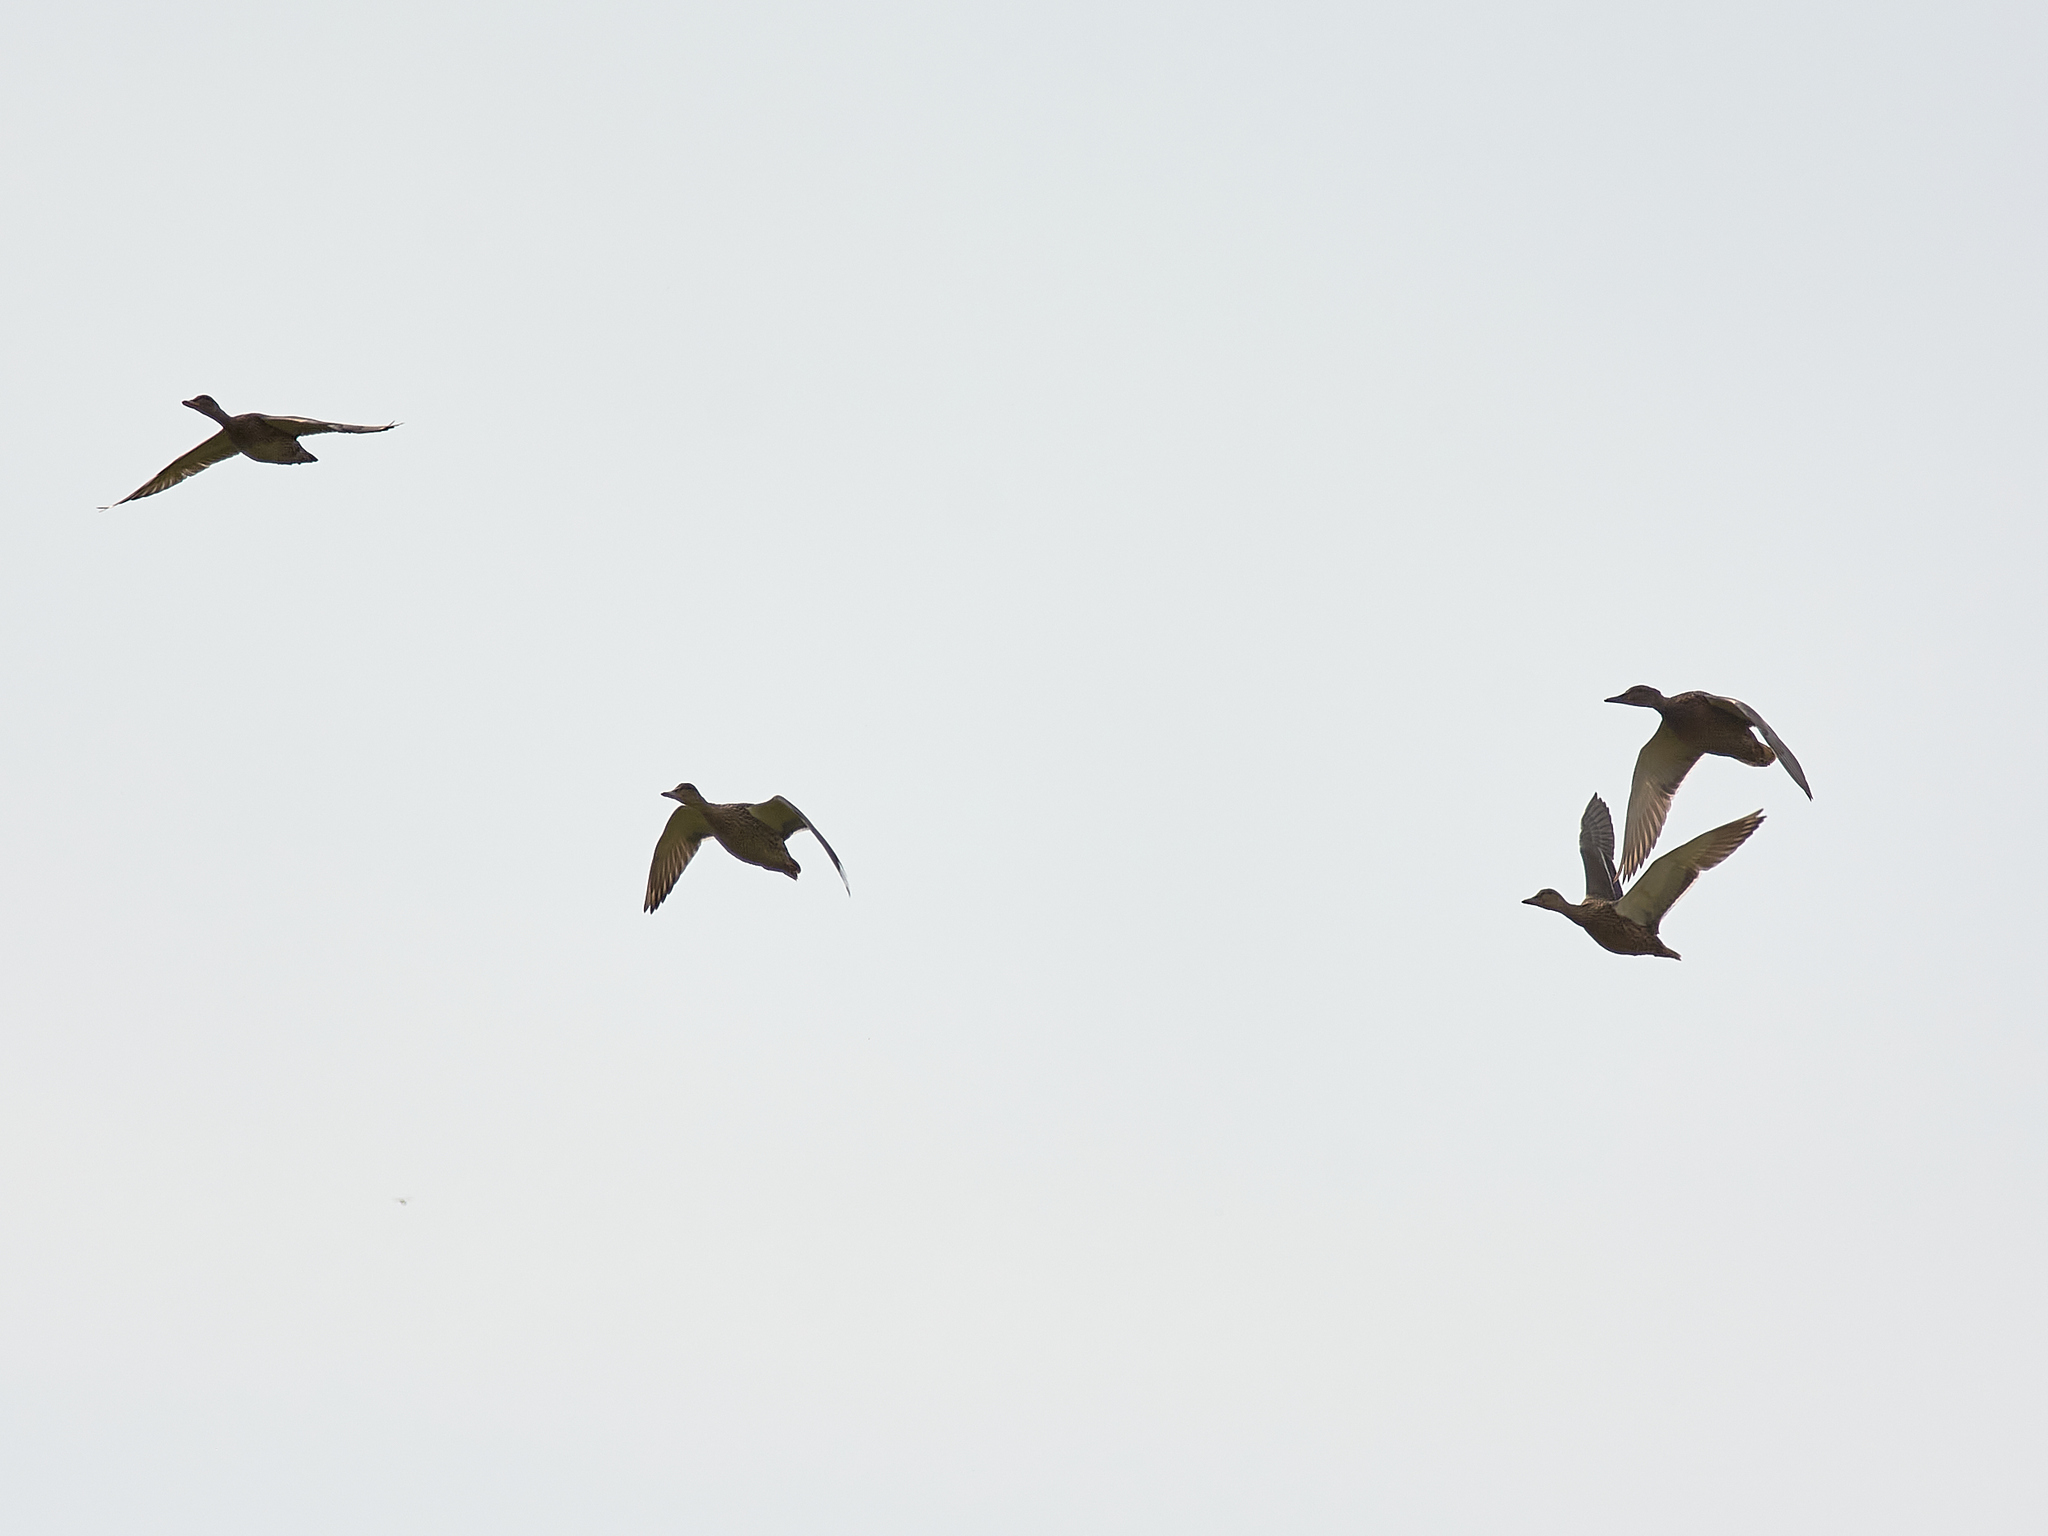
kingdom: Animalia
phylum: Chordata
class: Aves
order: Anseriformes
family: Anatidae
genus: Anas
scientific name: Anas platyrhynchos
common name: Mallard
